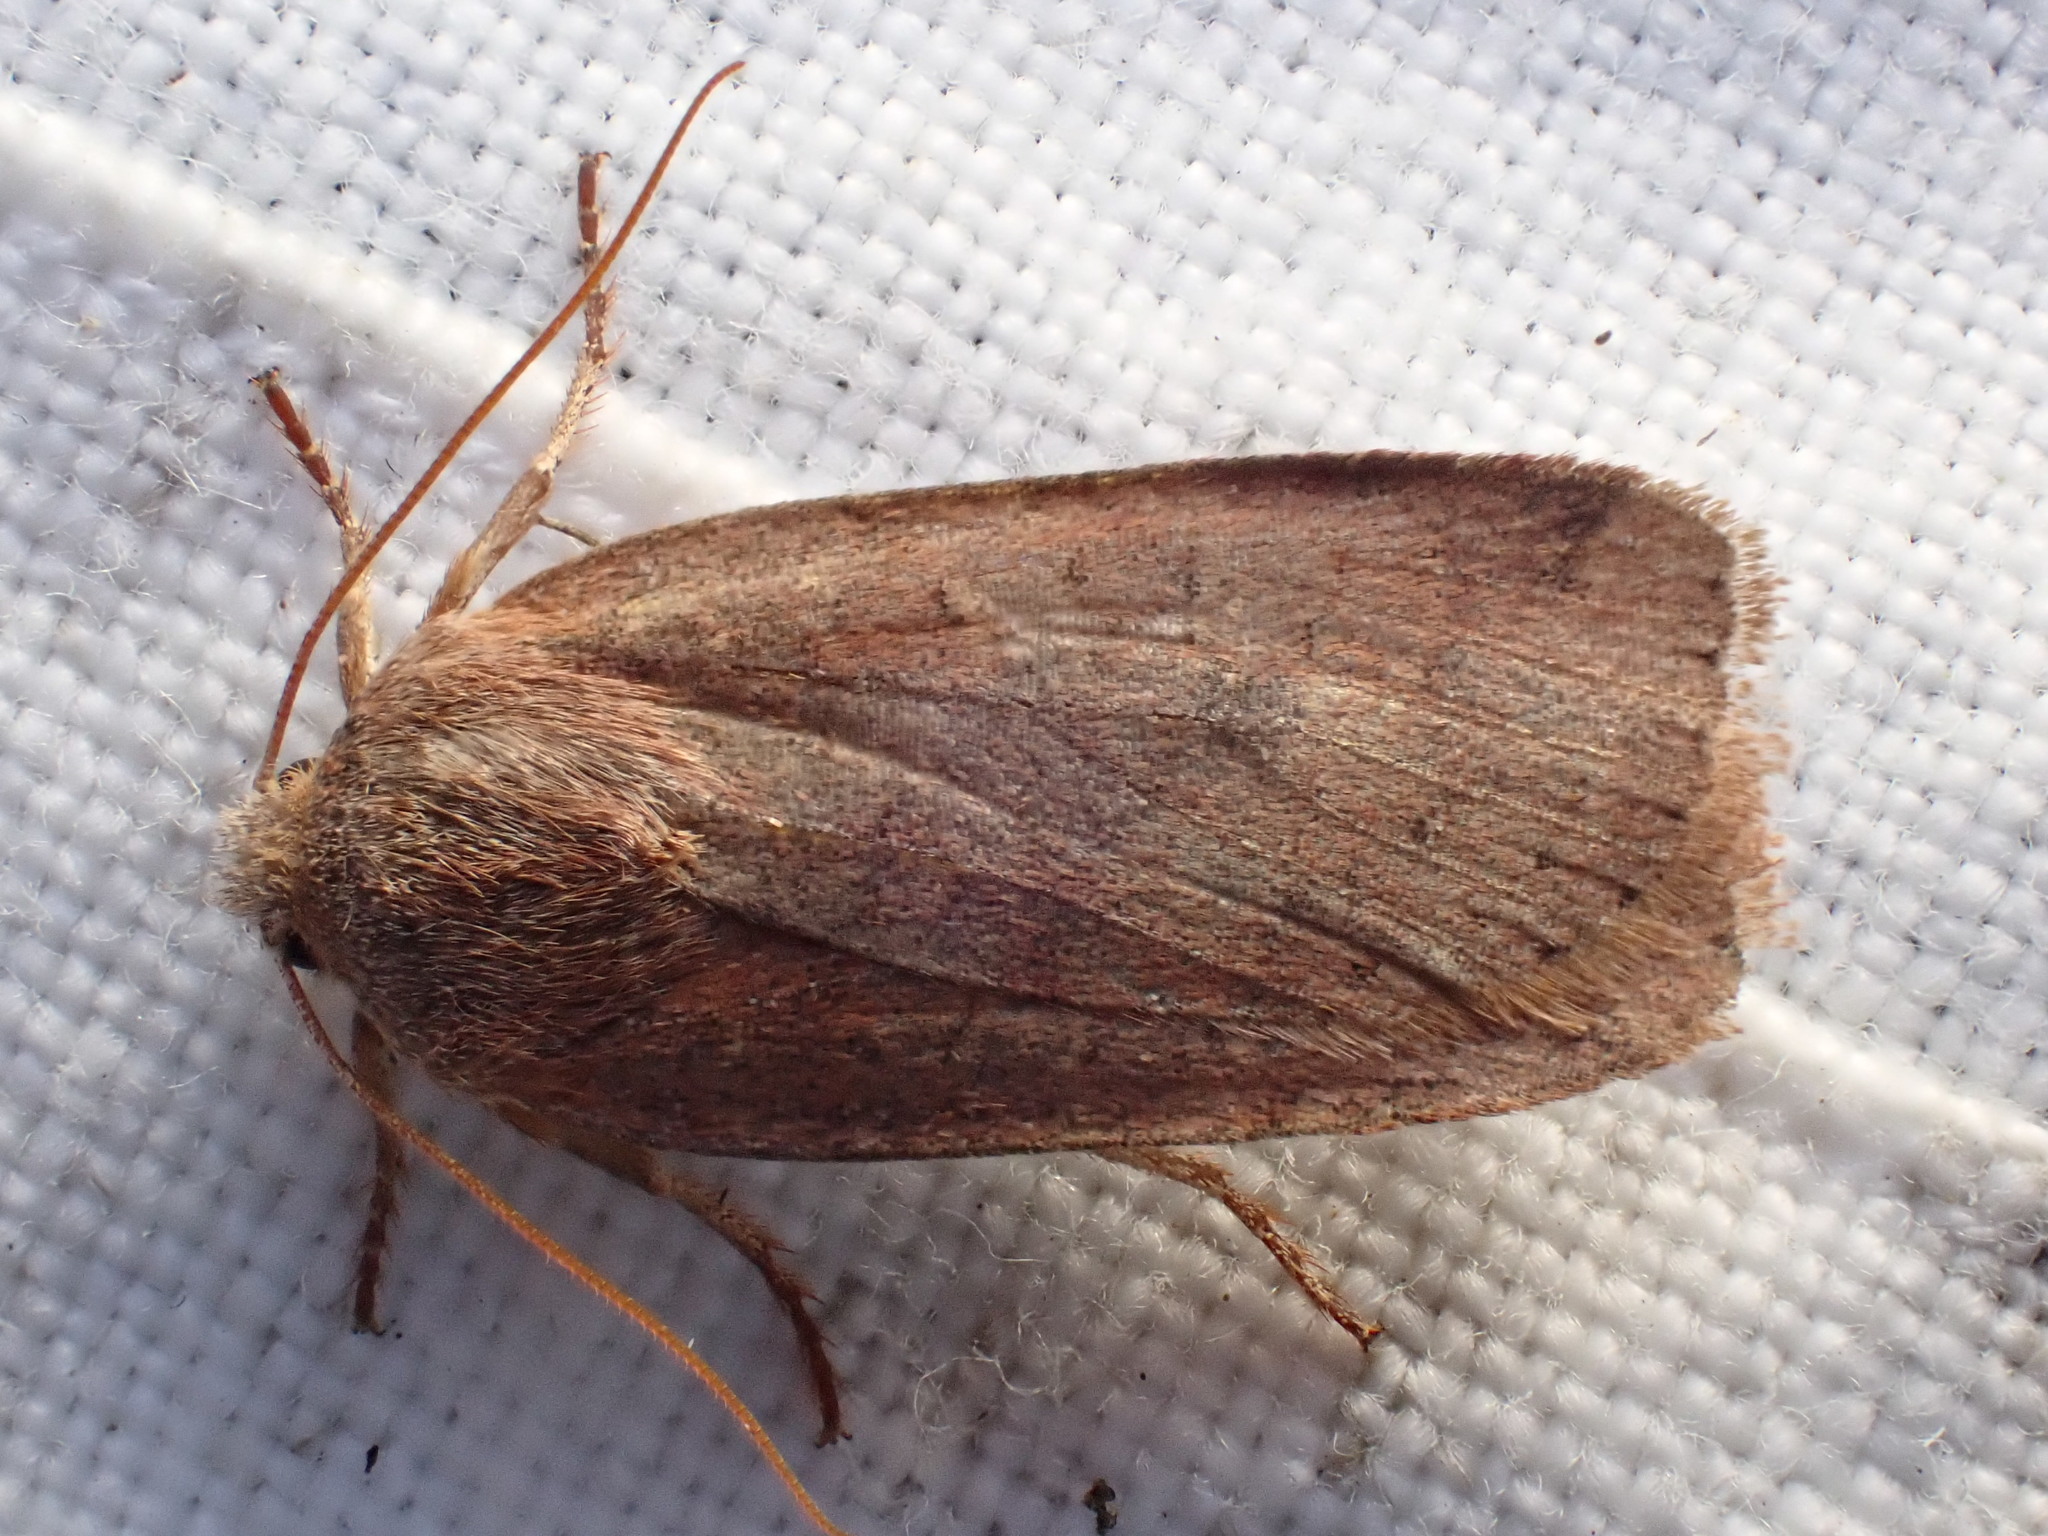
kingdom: Animalia
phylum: Arthropoda
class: Insecta
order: Lepidoptera
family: Noctuidae
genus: Conistra
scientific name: Conistra vaccinii
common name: Chestnut
